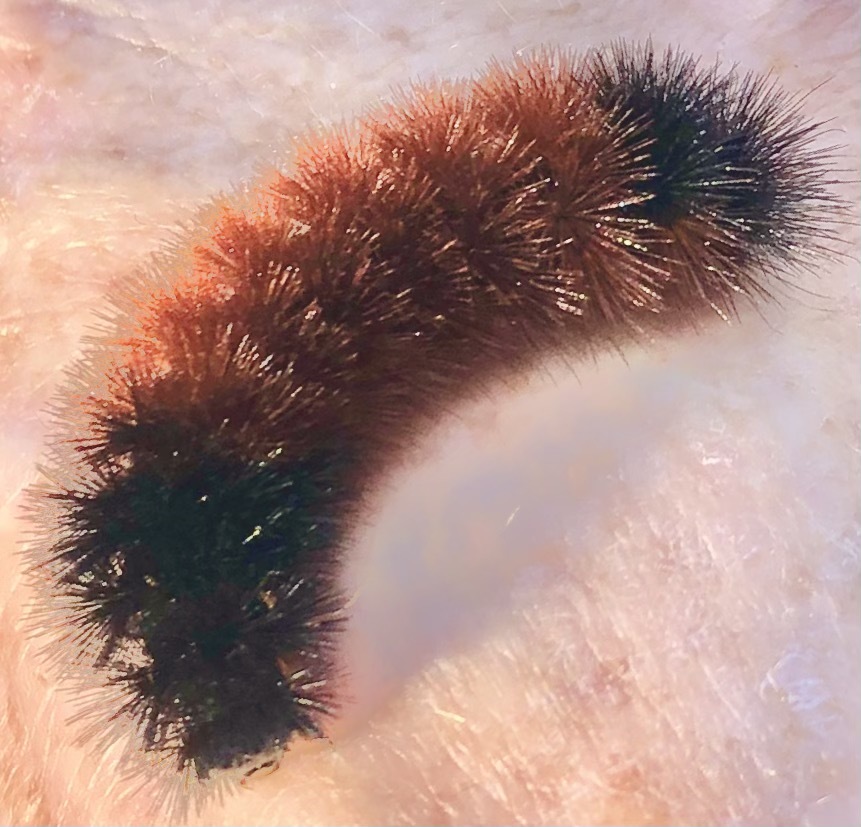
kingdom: Animalia
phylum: Arthropoda
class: Insecta
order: Lepidoptera
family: Erebidae
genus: Pyrrharctia
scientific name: Pyrrharctia isabella
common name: Isabella tiger moth
